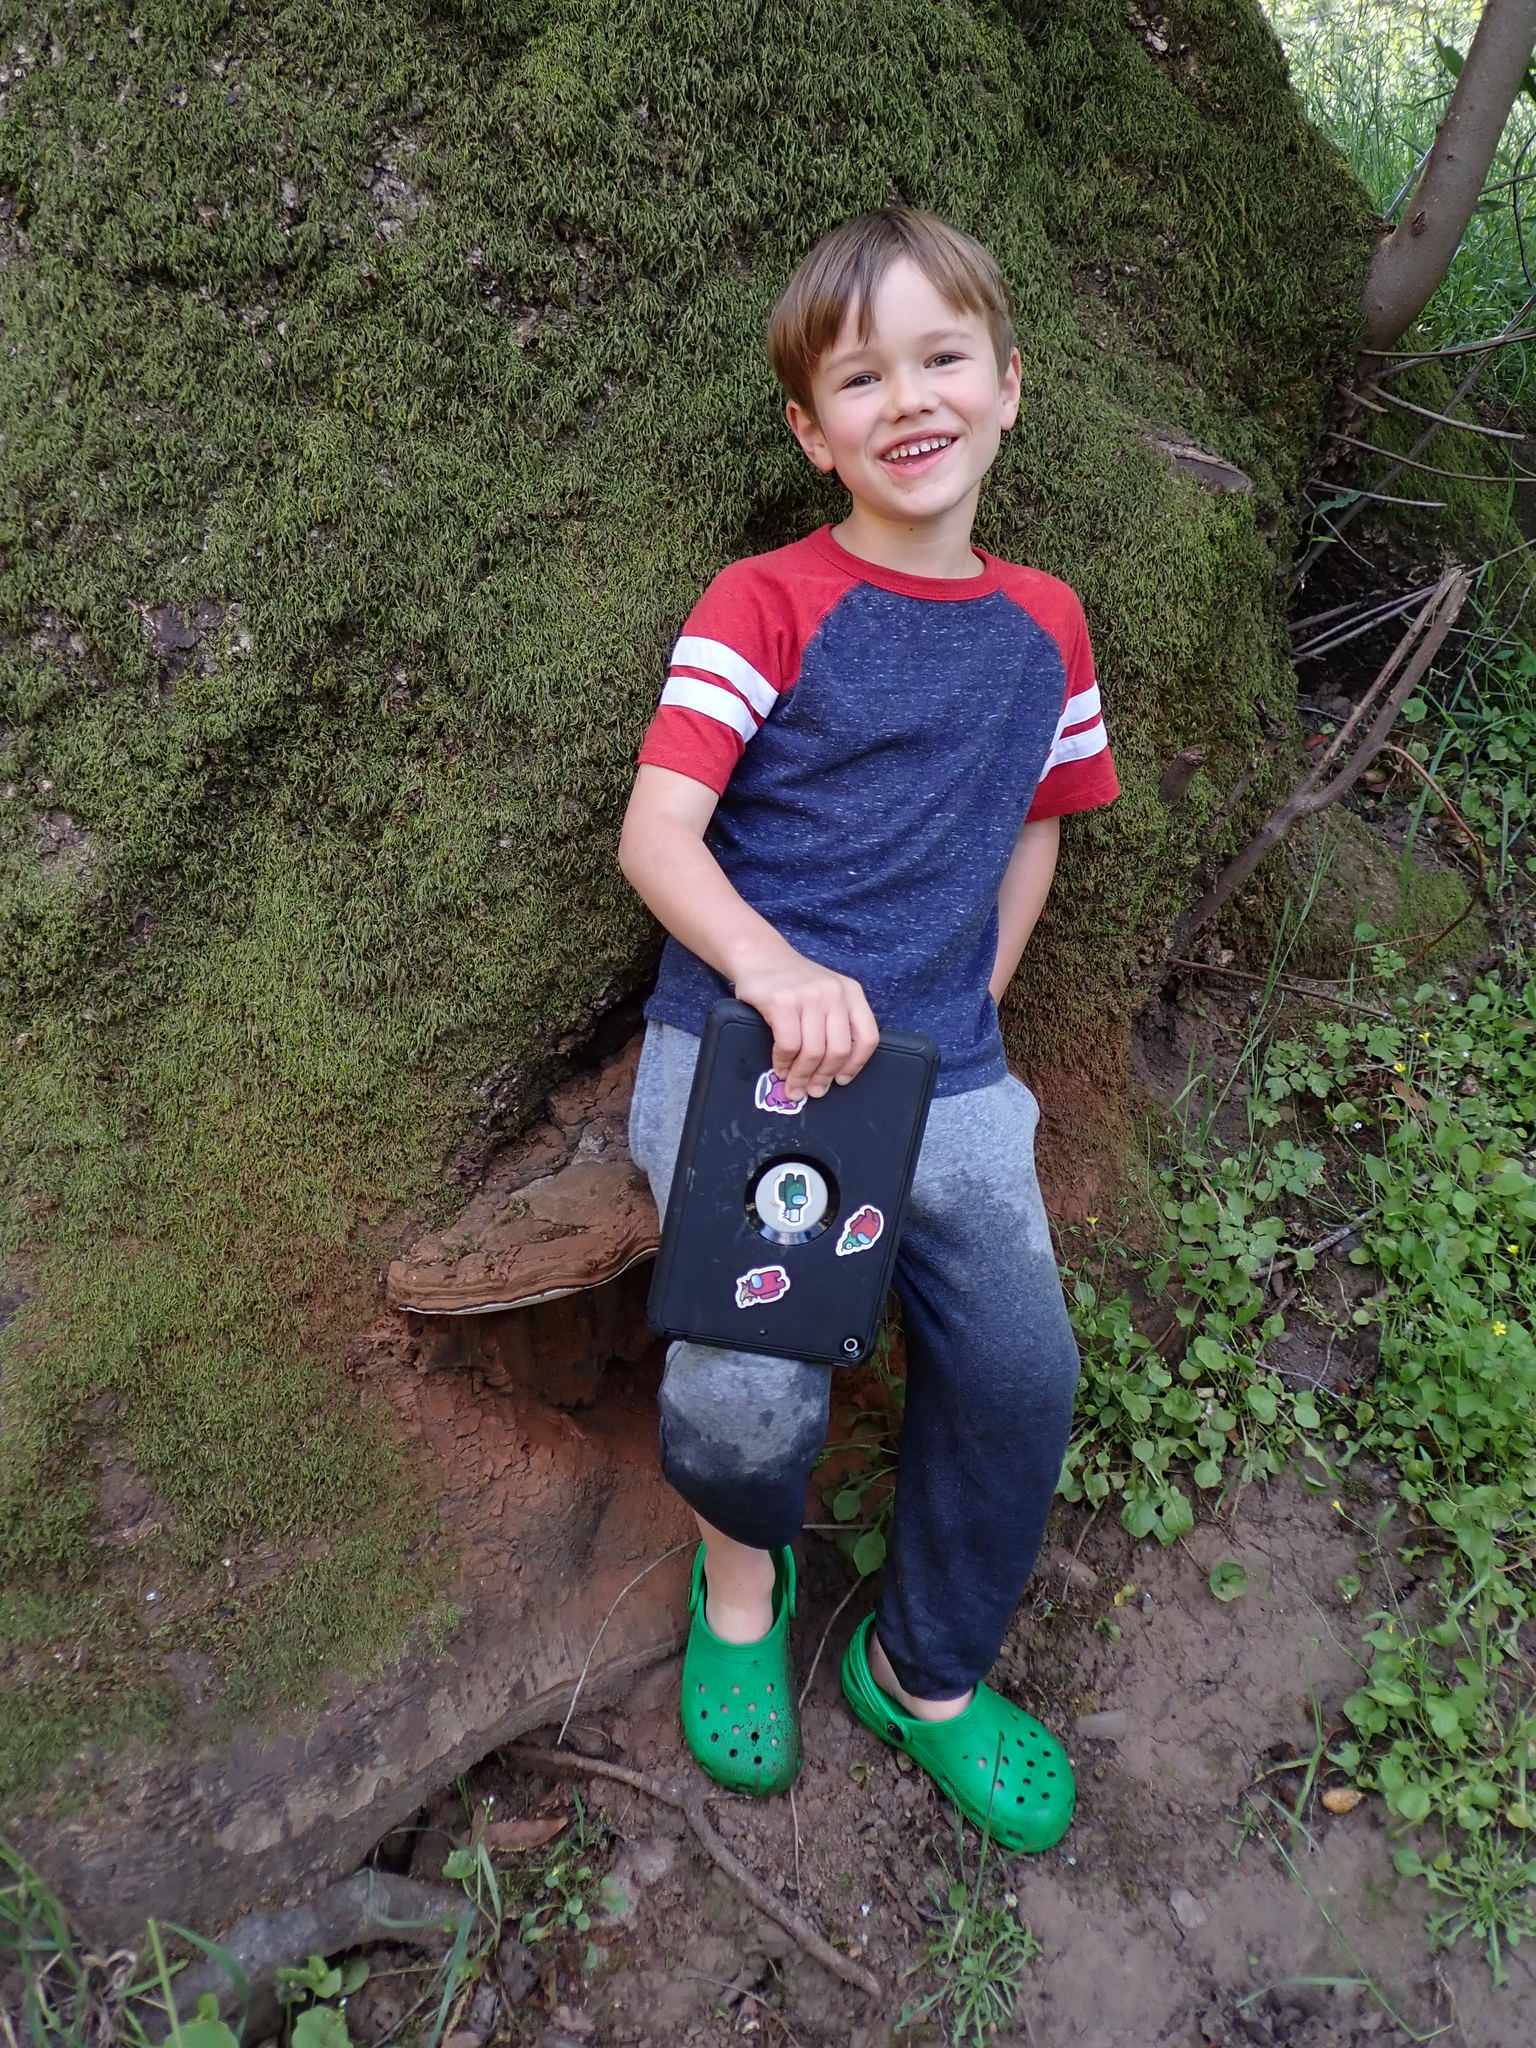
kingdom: Fungi
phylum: Basidiomycota
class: Agaricomycetes
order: Polyporales
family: Polyporaceae
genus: Ganoderma
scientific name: Ganoderma brownii
